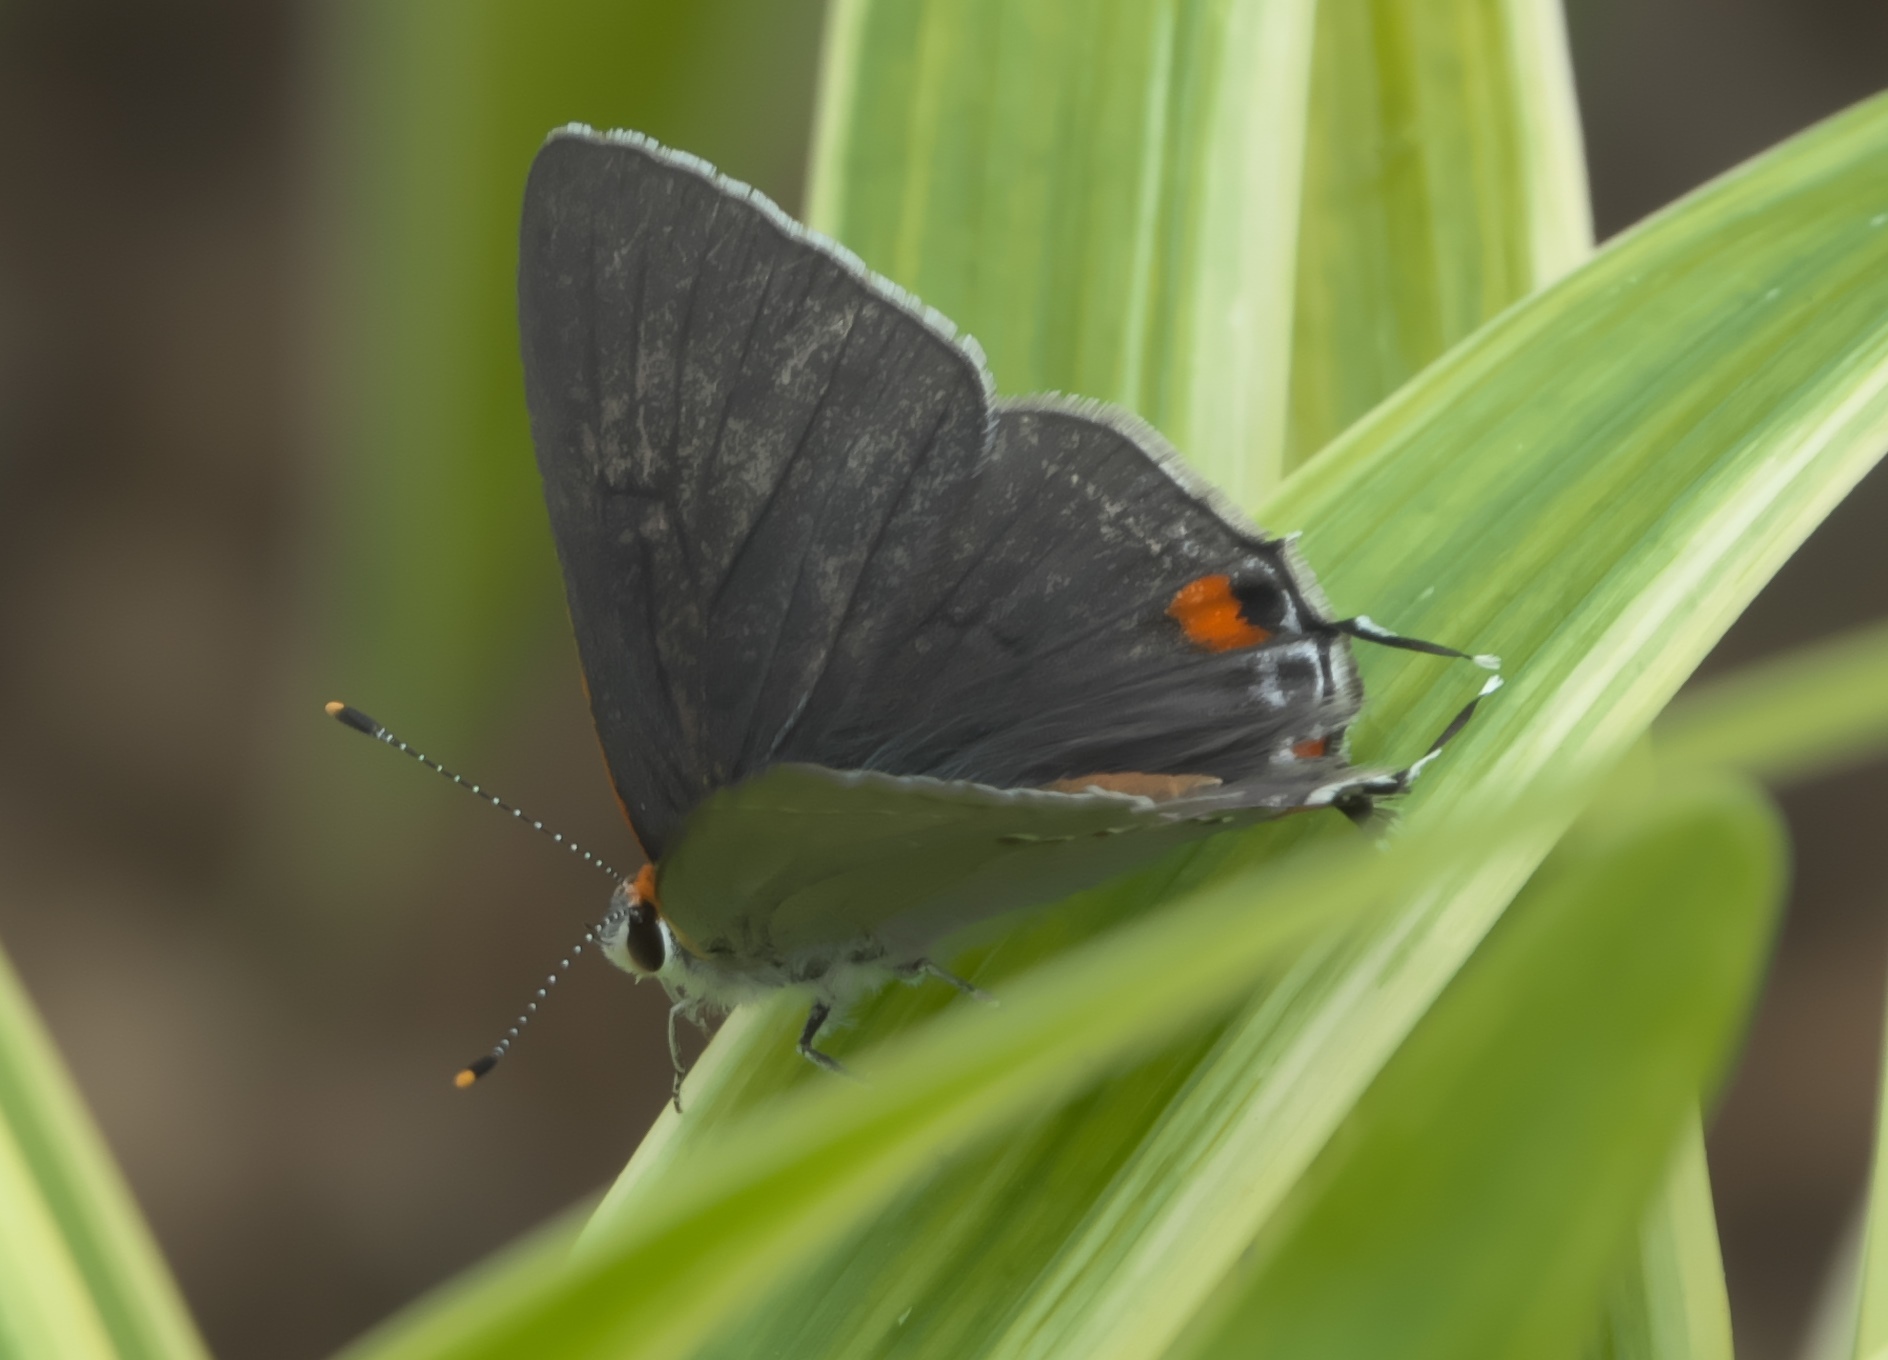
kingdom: Animalia
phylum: Arthropoda
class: Insecta
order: Lepidoptera
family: Lycaenidae
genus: Strymon
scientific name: Strymon melinus
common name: Gray hairstreak
